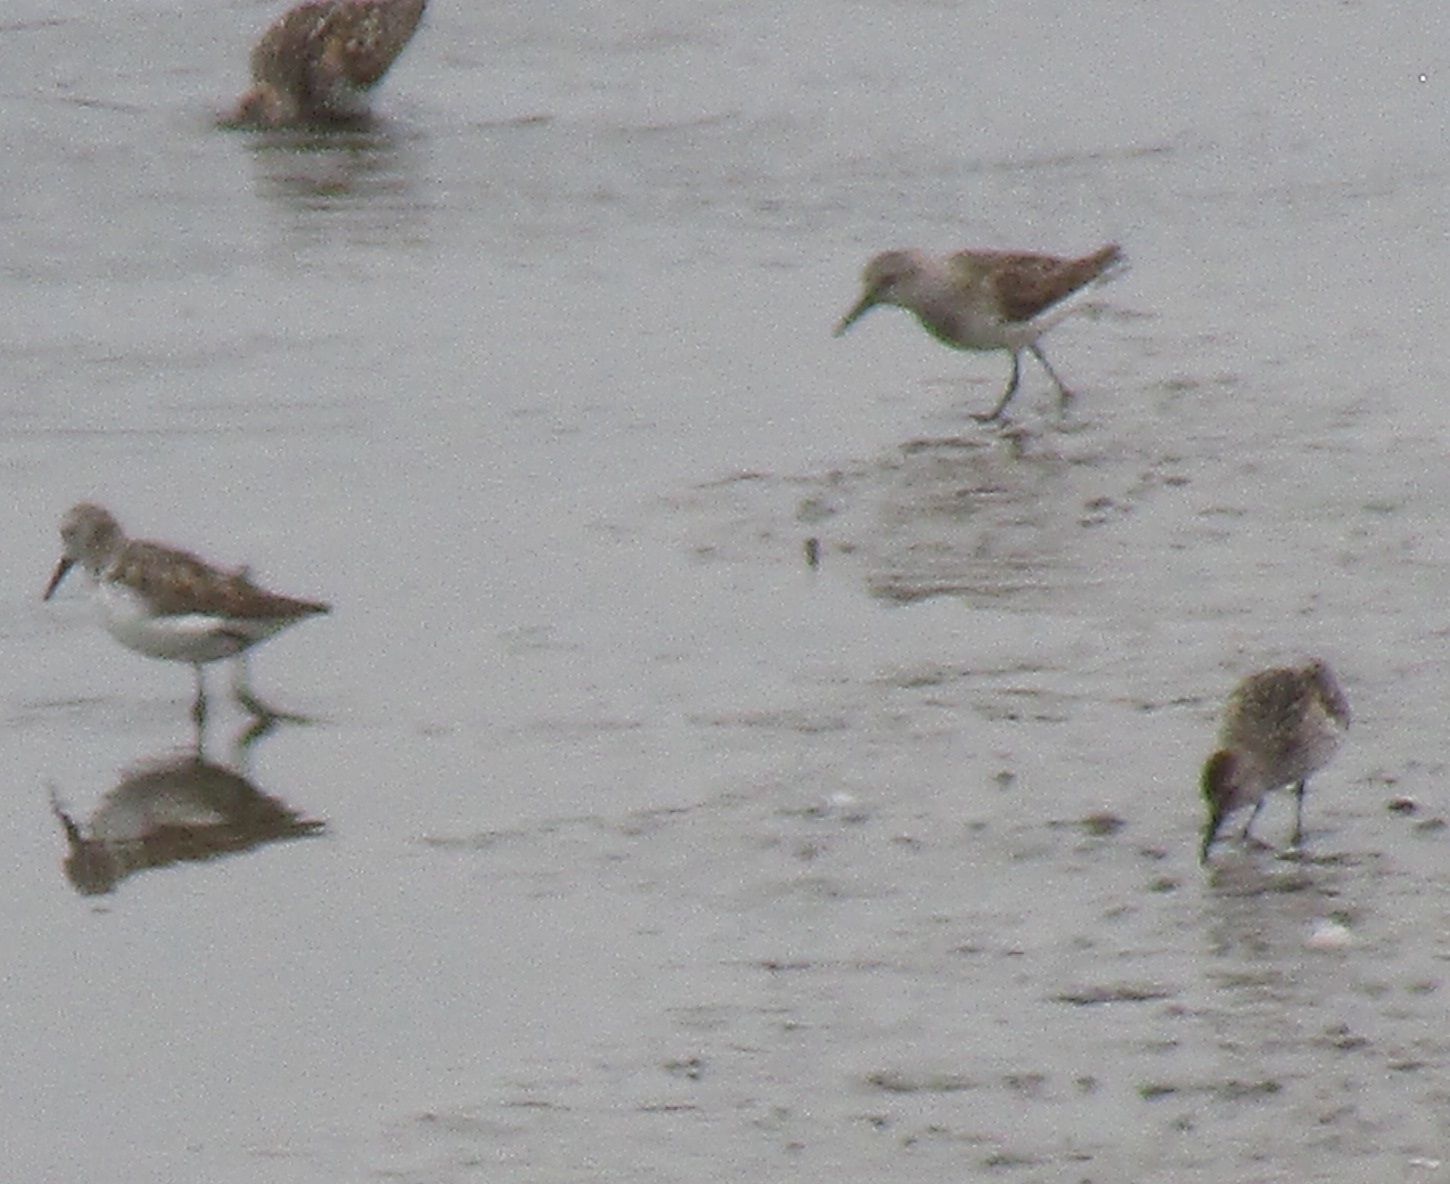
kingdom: Animalia
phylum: Chordata
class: Aves
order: Charadriiformes
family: Scolopacidae
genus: Calidris
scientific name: Calidris mauri
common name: Western sandpiper
